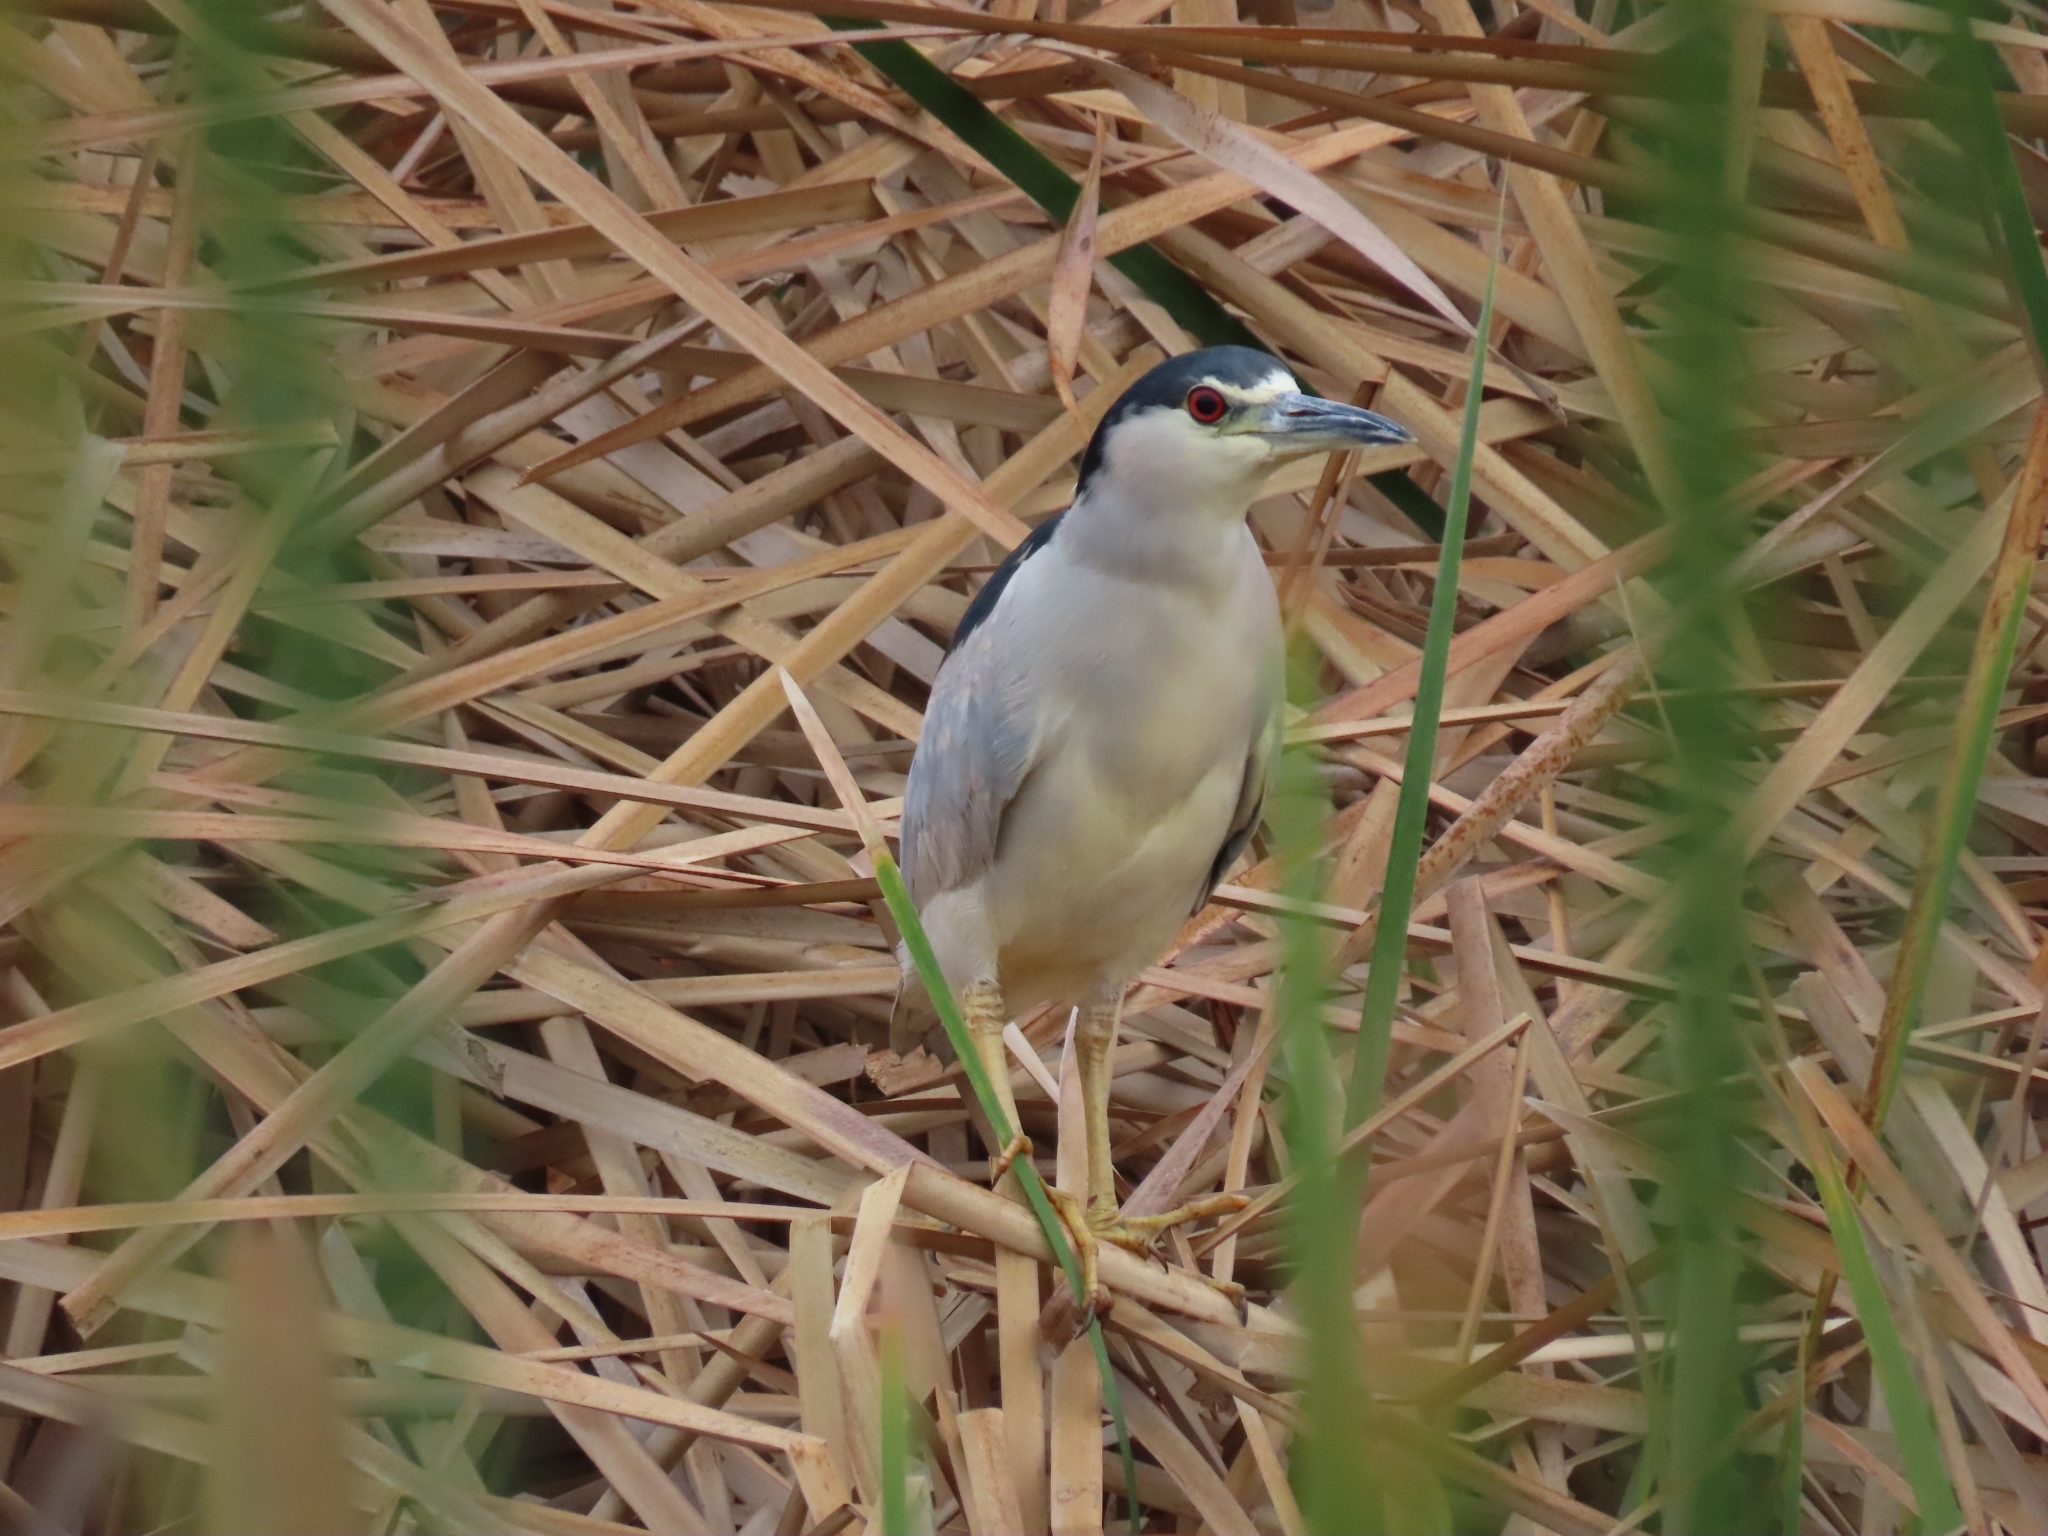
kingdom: Animalia
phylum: Chordata
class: Aves
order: Pelecaniformes
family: Ardeidae
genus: Nycticorax
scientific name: Nycticorax nycticorax
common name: Black-crowned night heron
